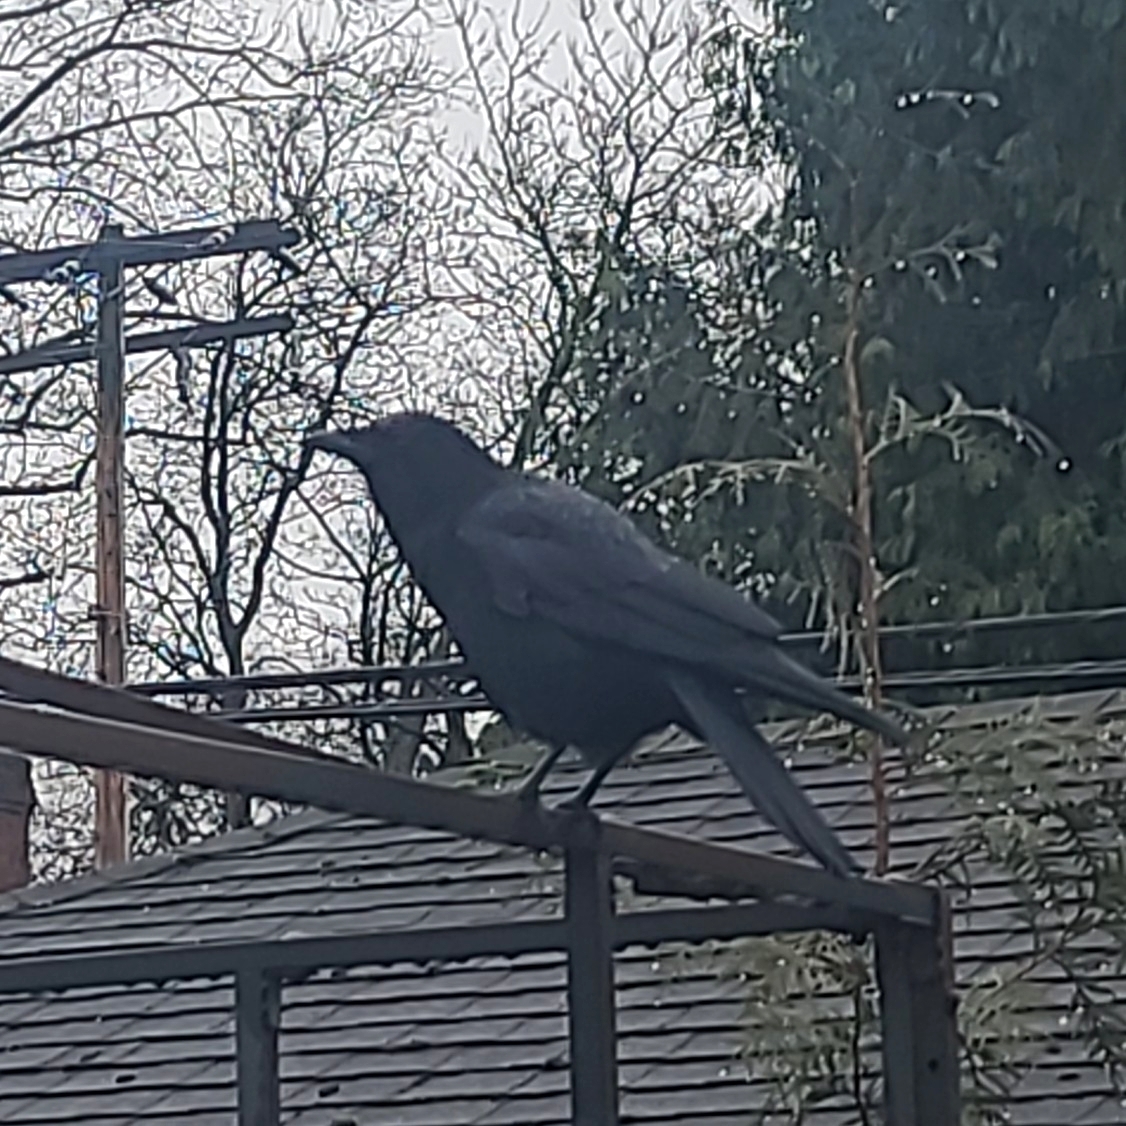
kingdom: Animalia
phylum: Chordata
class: Aves
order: Passeriformes
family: Corvidae
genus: Corvus
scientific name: Corvus brachyrhynchos
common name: American crow
